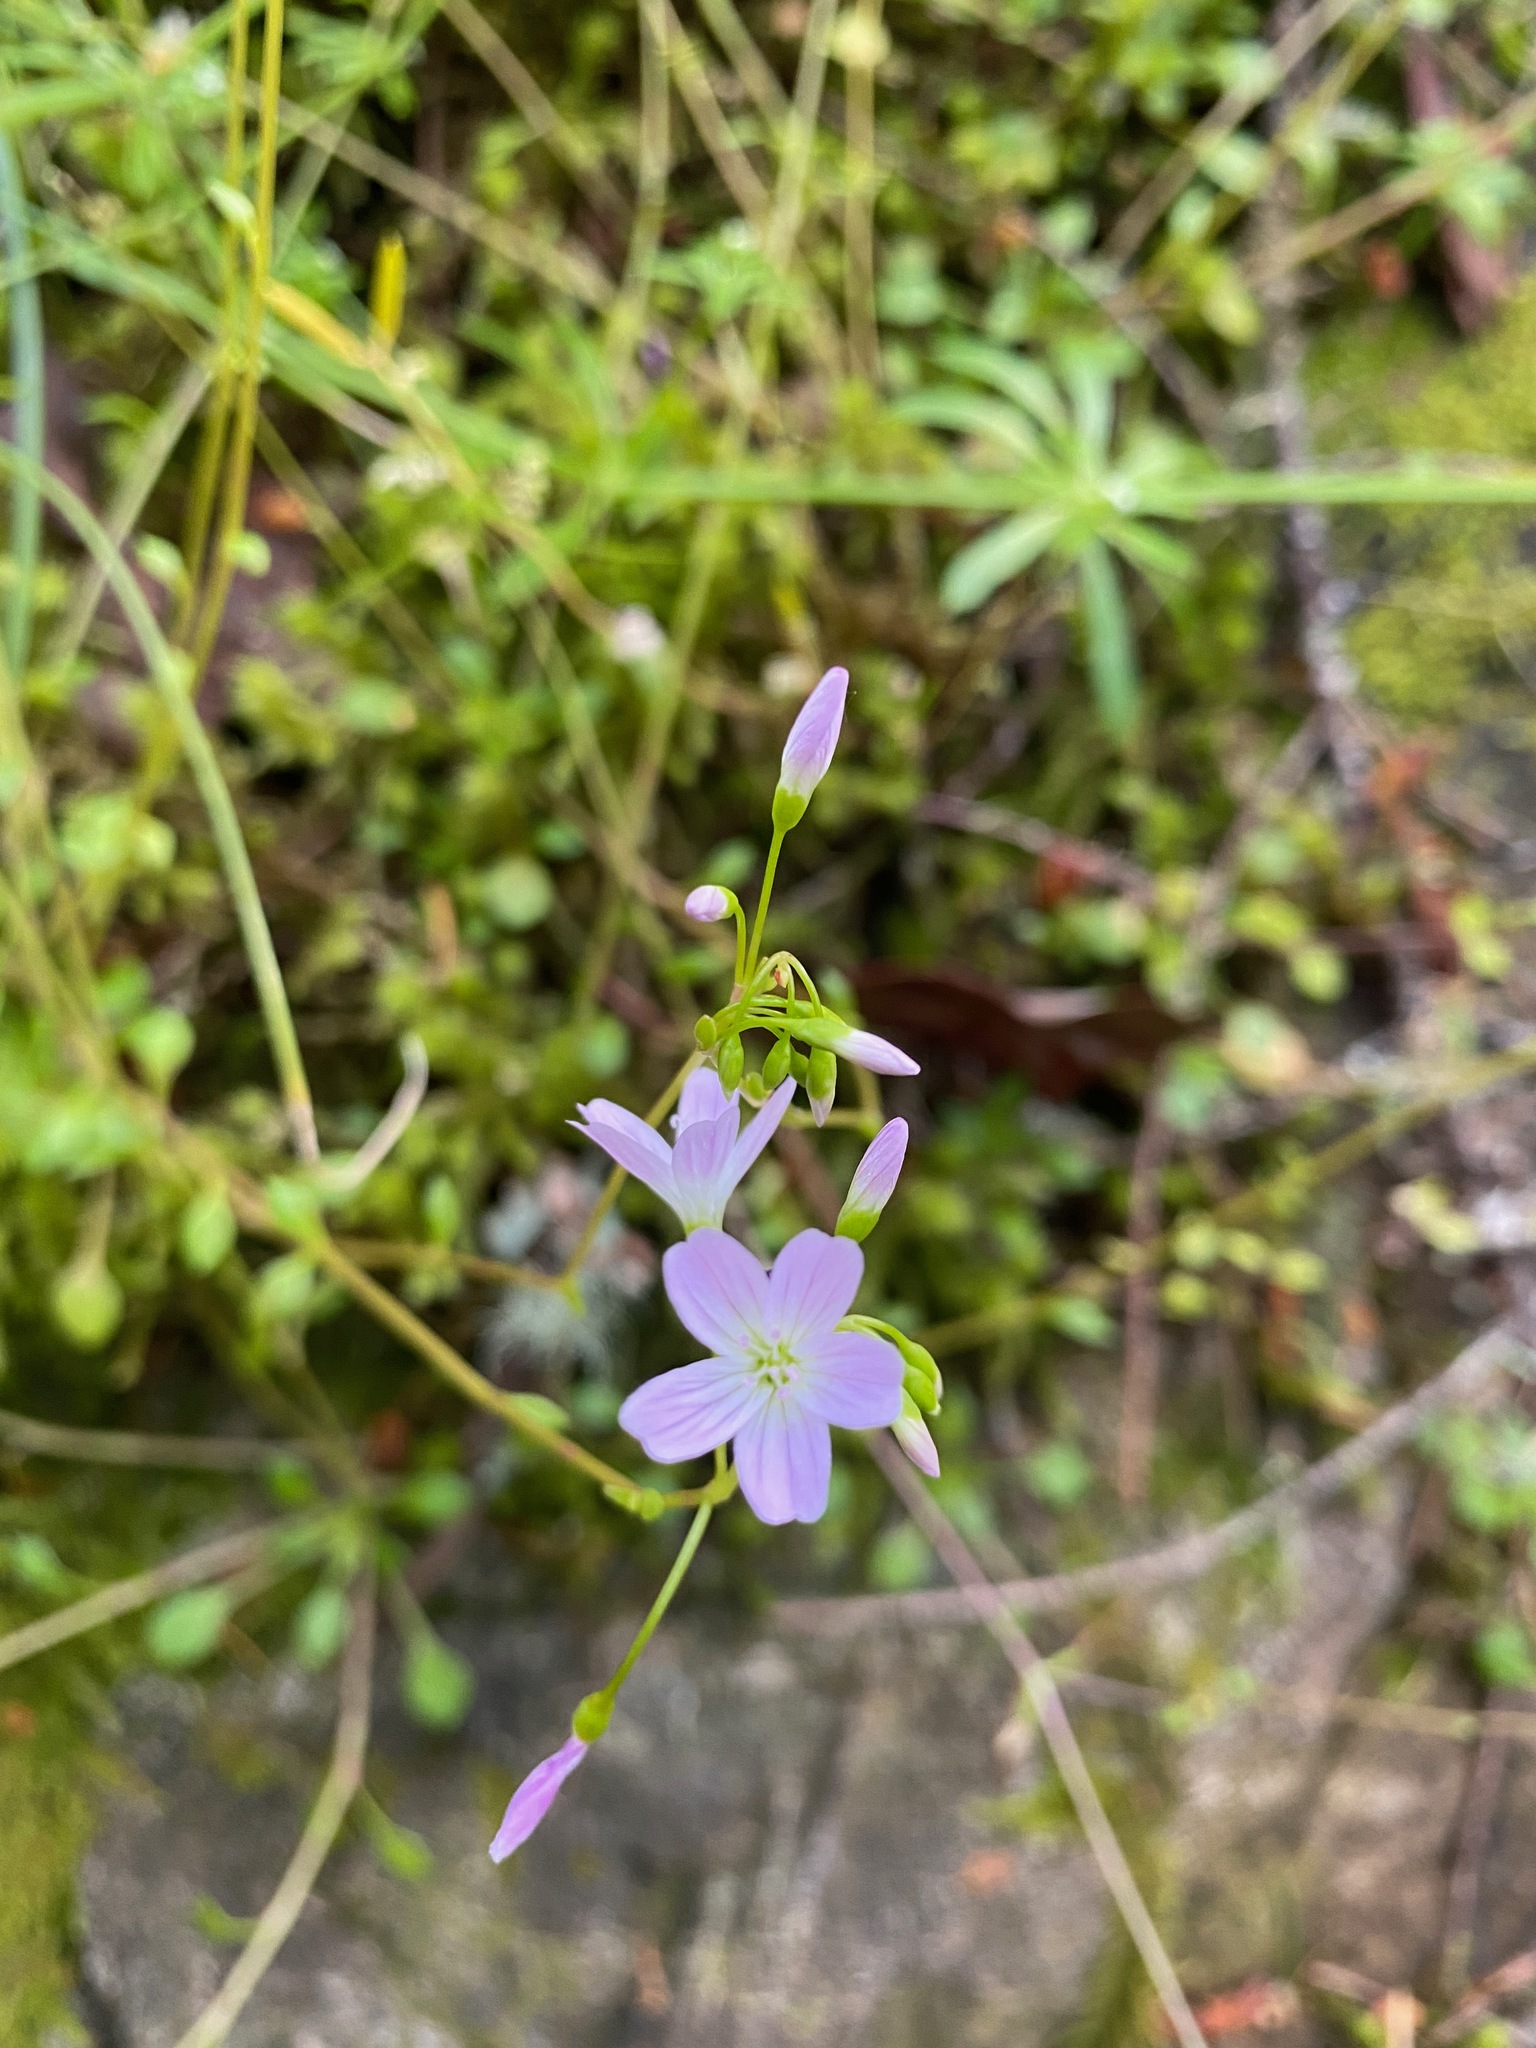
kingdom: Plantae
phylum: Tracheophyta
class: Magnoliopsida
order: Caryophyllales
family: Montiaceae
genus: Montia
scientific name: Montia parvifolia
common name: Small-leaved blinks
